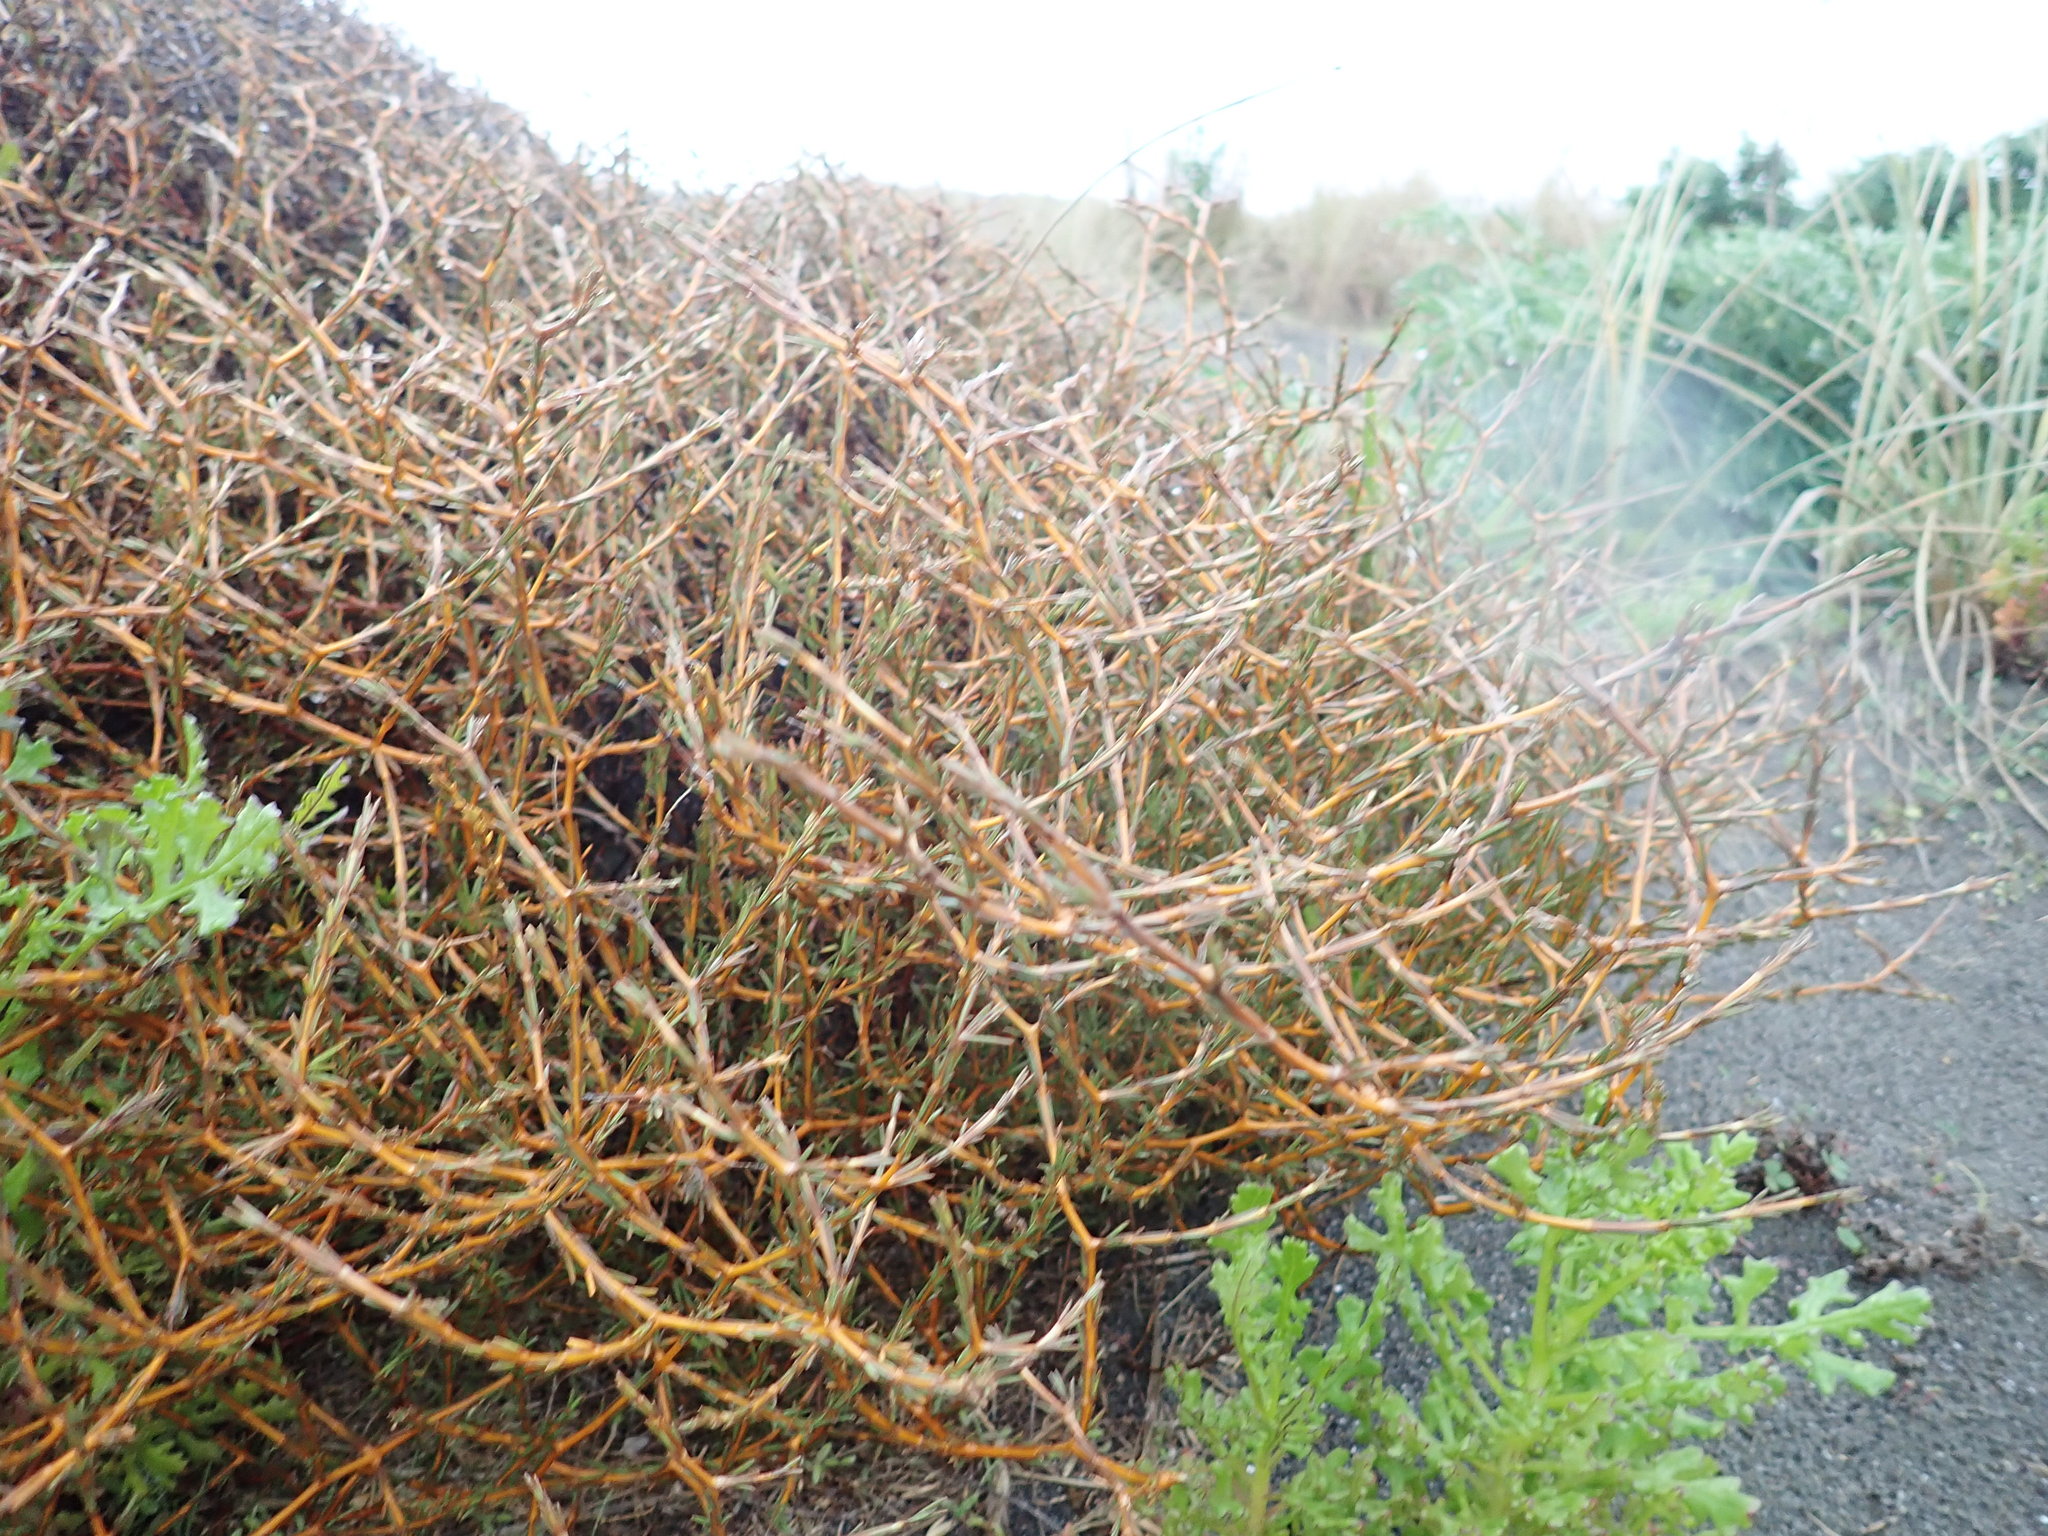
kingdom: Plantae
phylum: Tracheophyta
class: Magnoliopsida
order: Gentianales
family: Rubiaceae
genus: Coprosma
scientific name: Coprosma acerosa
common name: Sand coprosma
